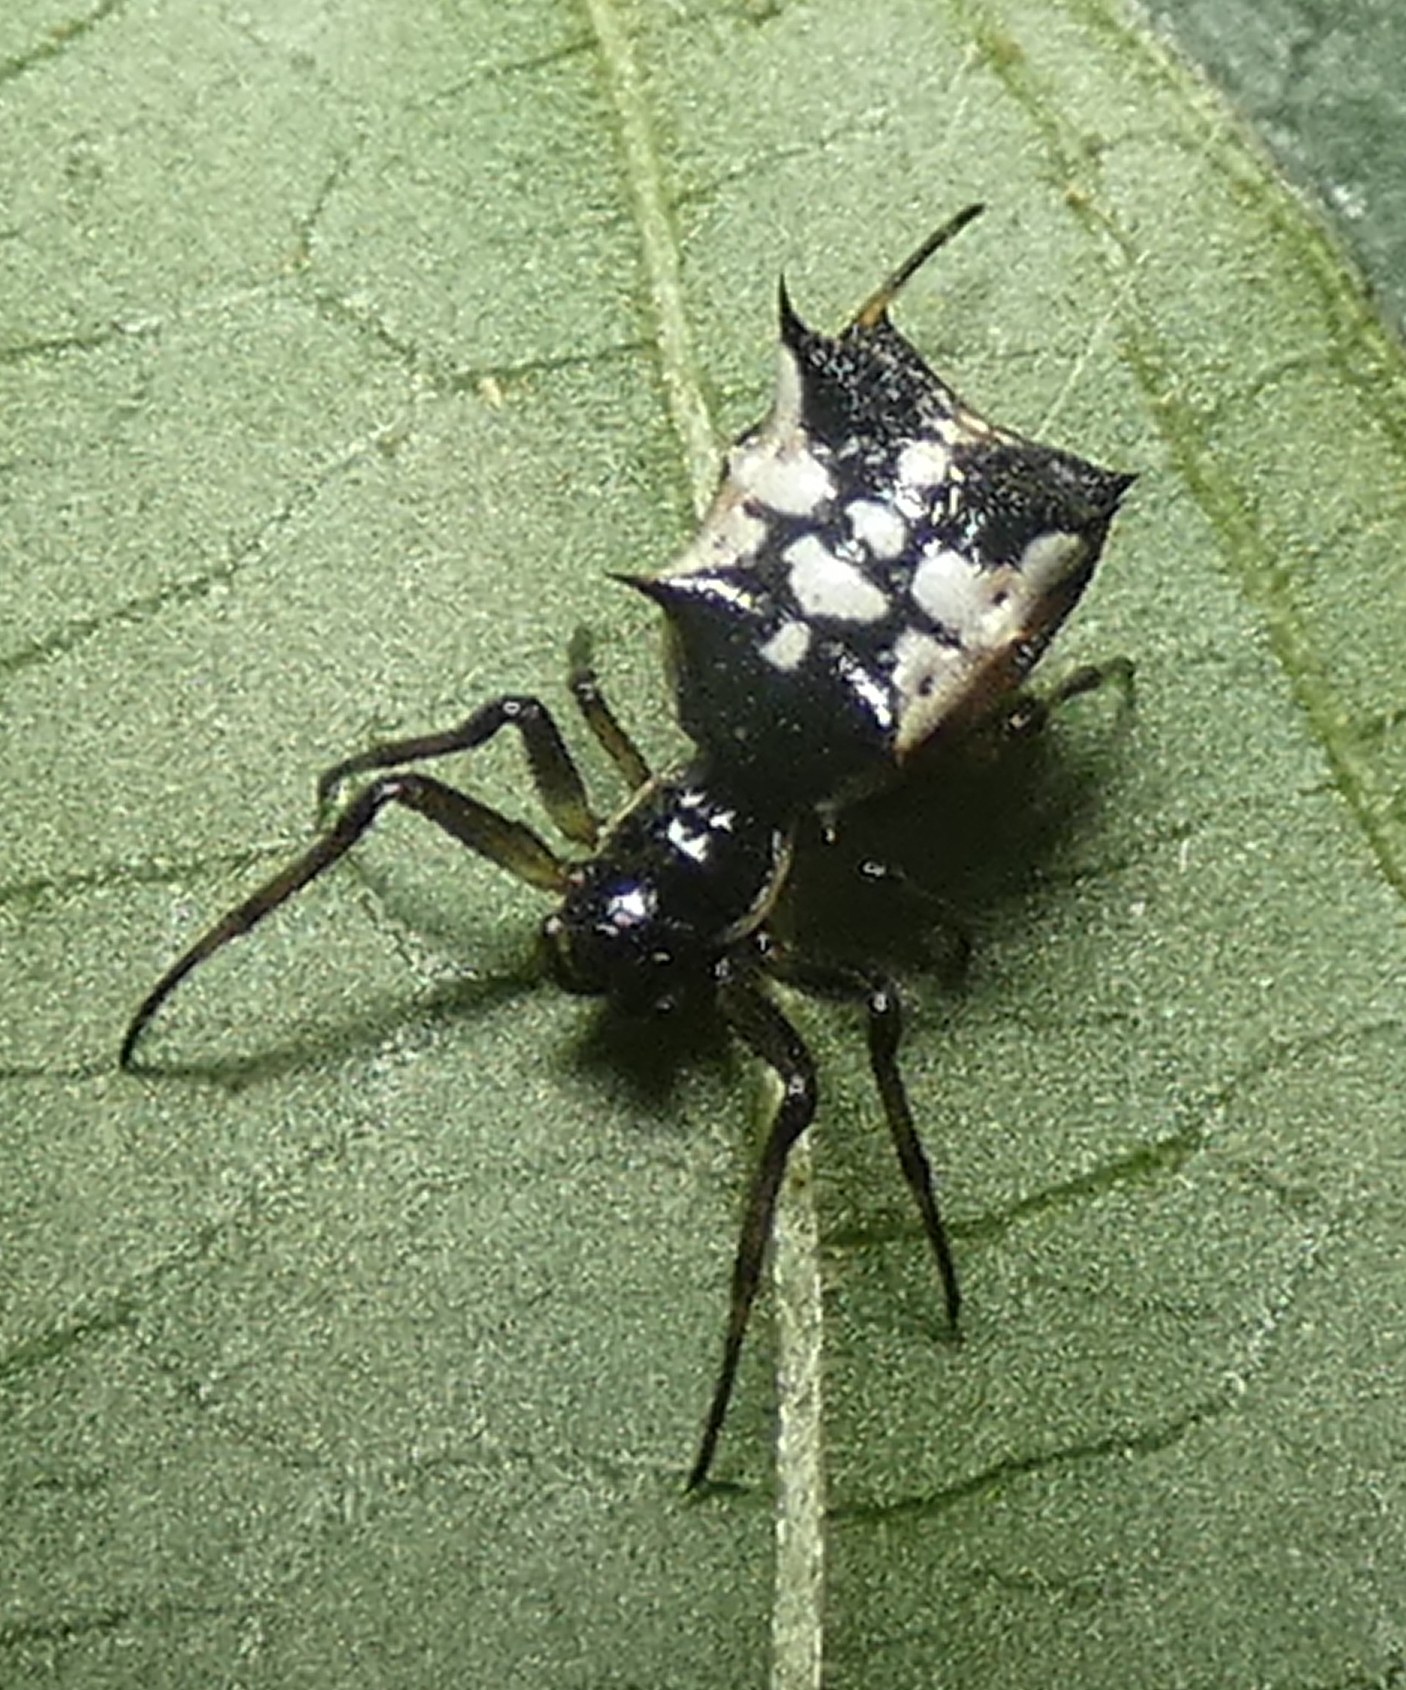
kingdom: Animalia
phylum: Arthropoda
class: Arachnida
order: Araneae
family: Araneidae
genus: Micrathena
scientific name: Micrathena picta
